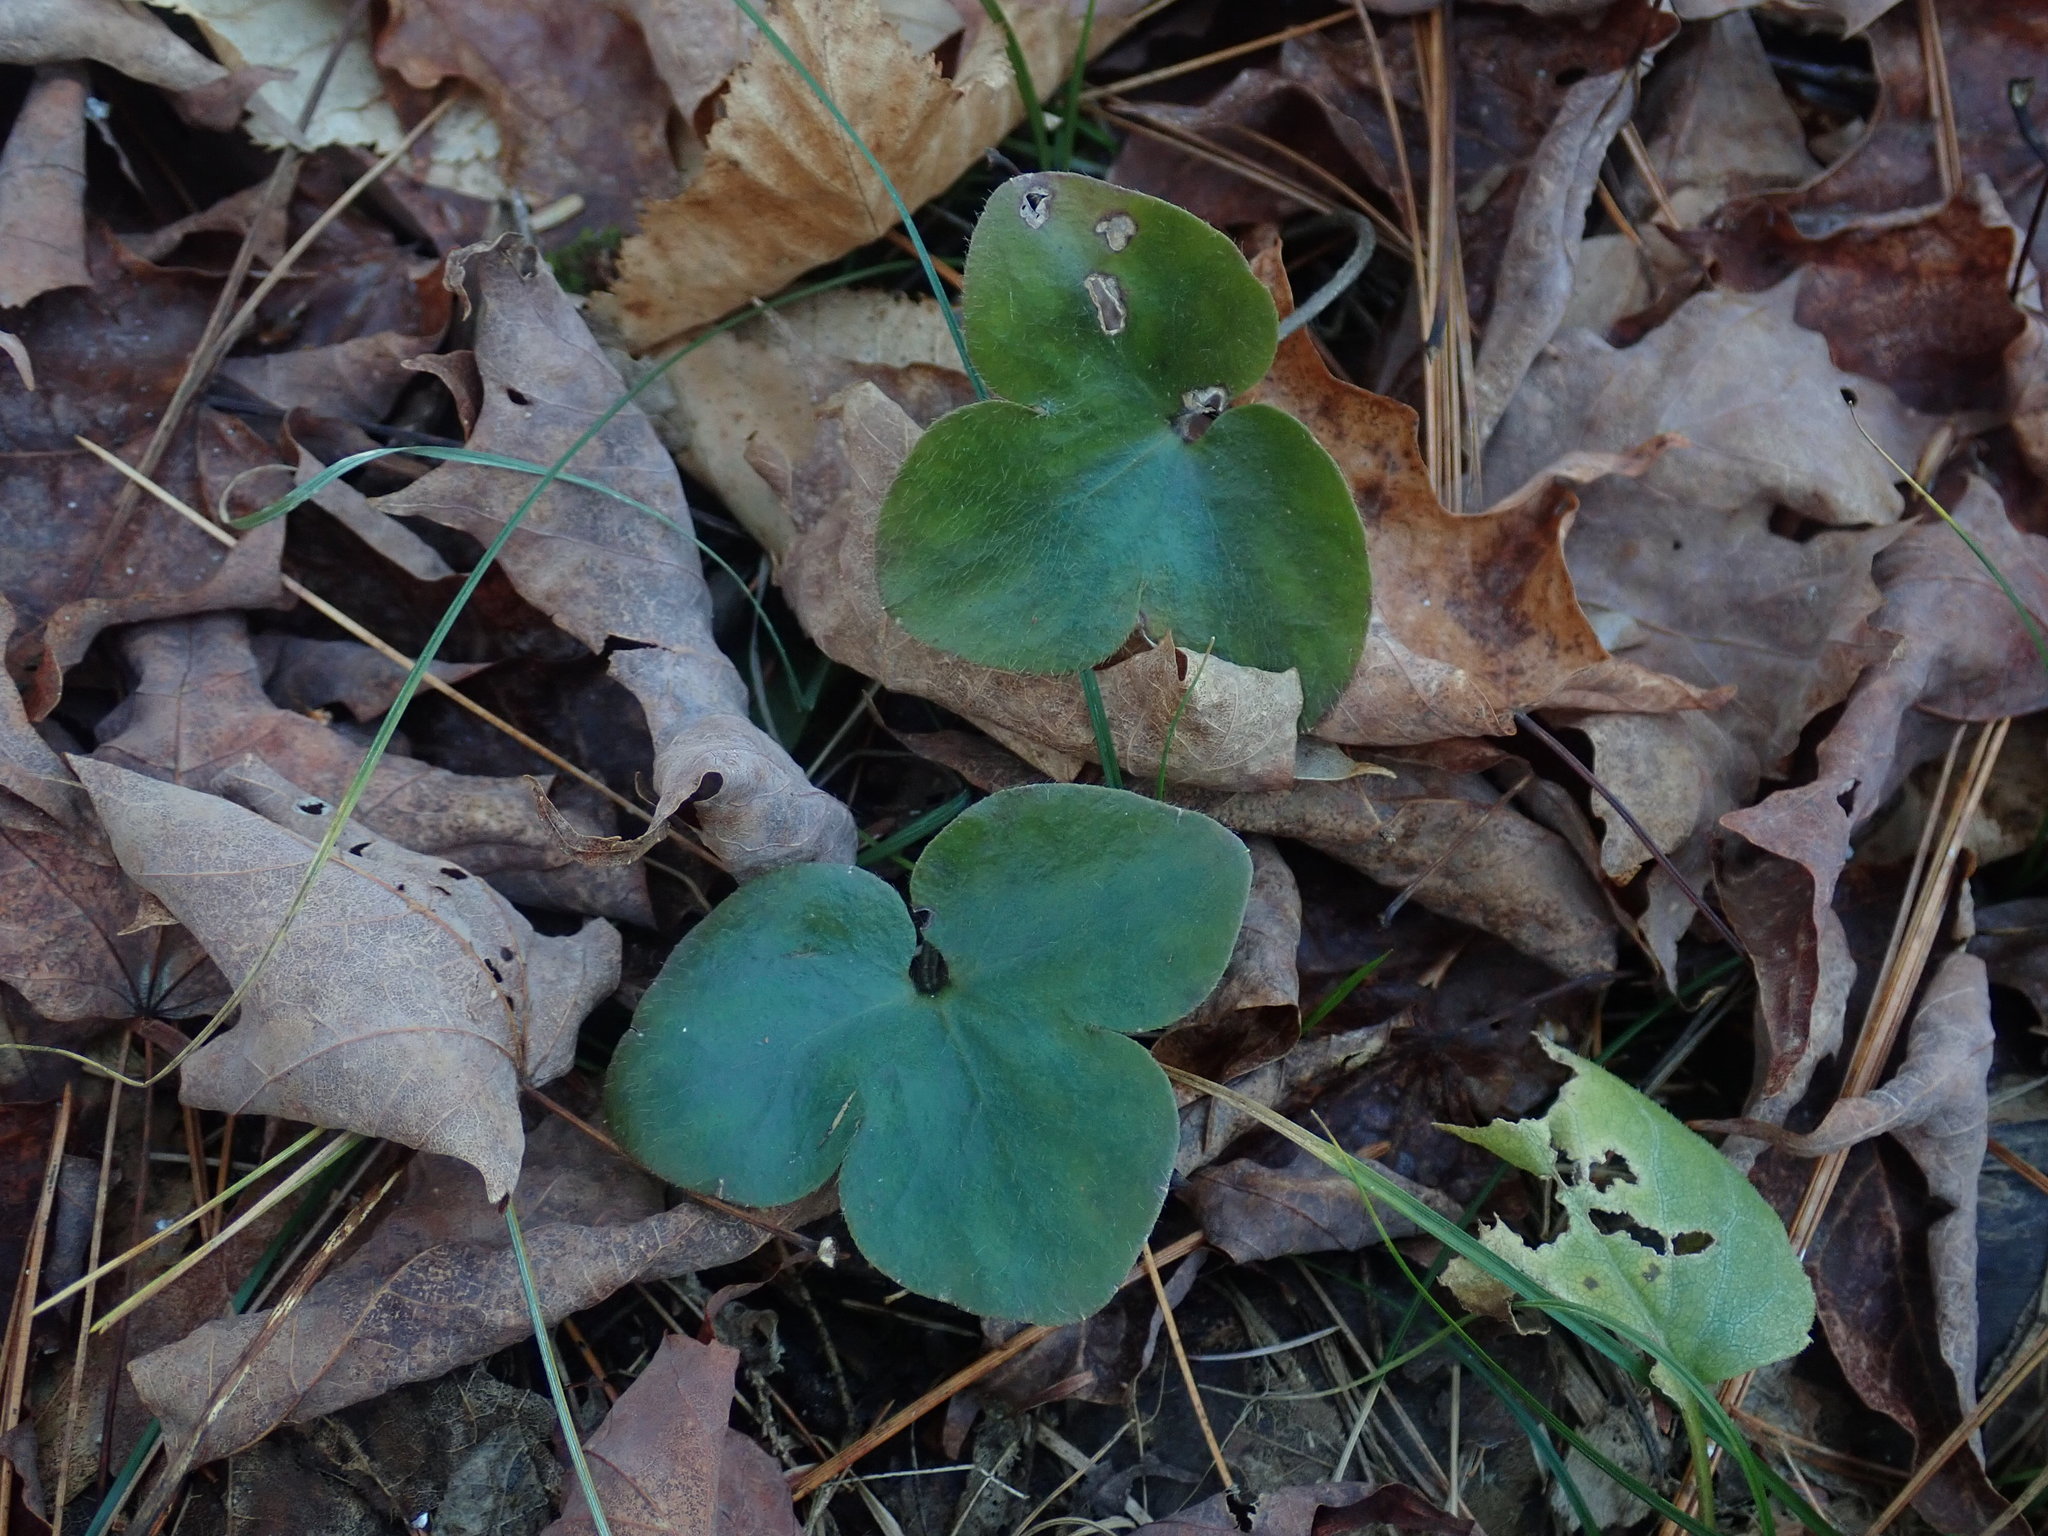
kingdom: Plantae
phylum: Tracheophyta
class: Magnoliopsida
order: Ranunculales
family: Ranunculaceae
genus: Hepatica
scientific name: Hepatica americana
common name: American hepatica
